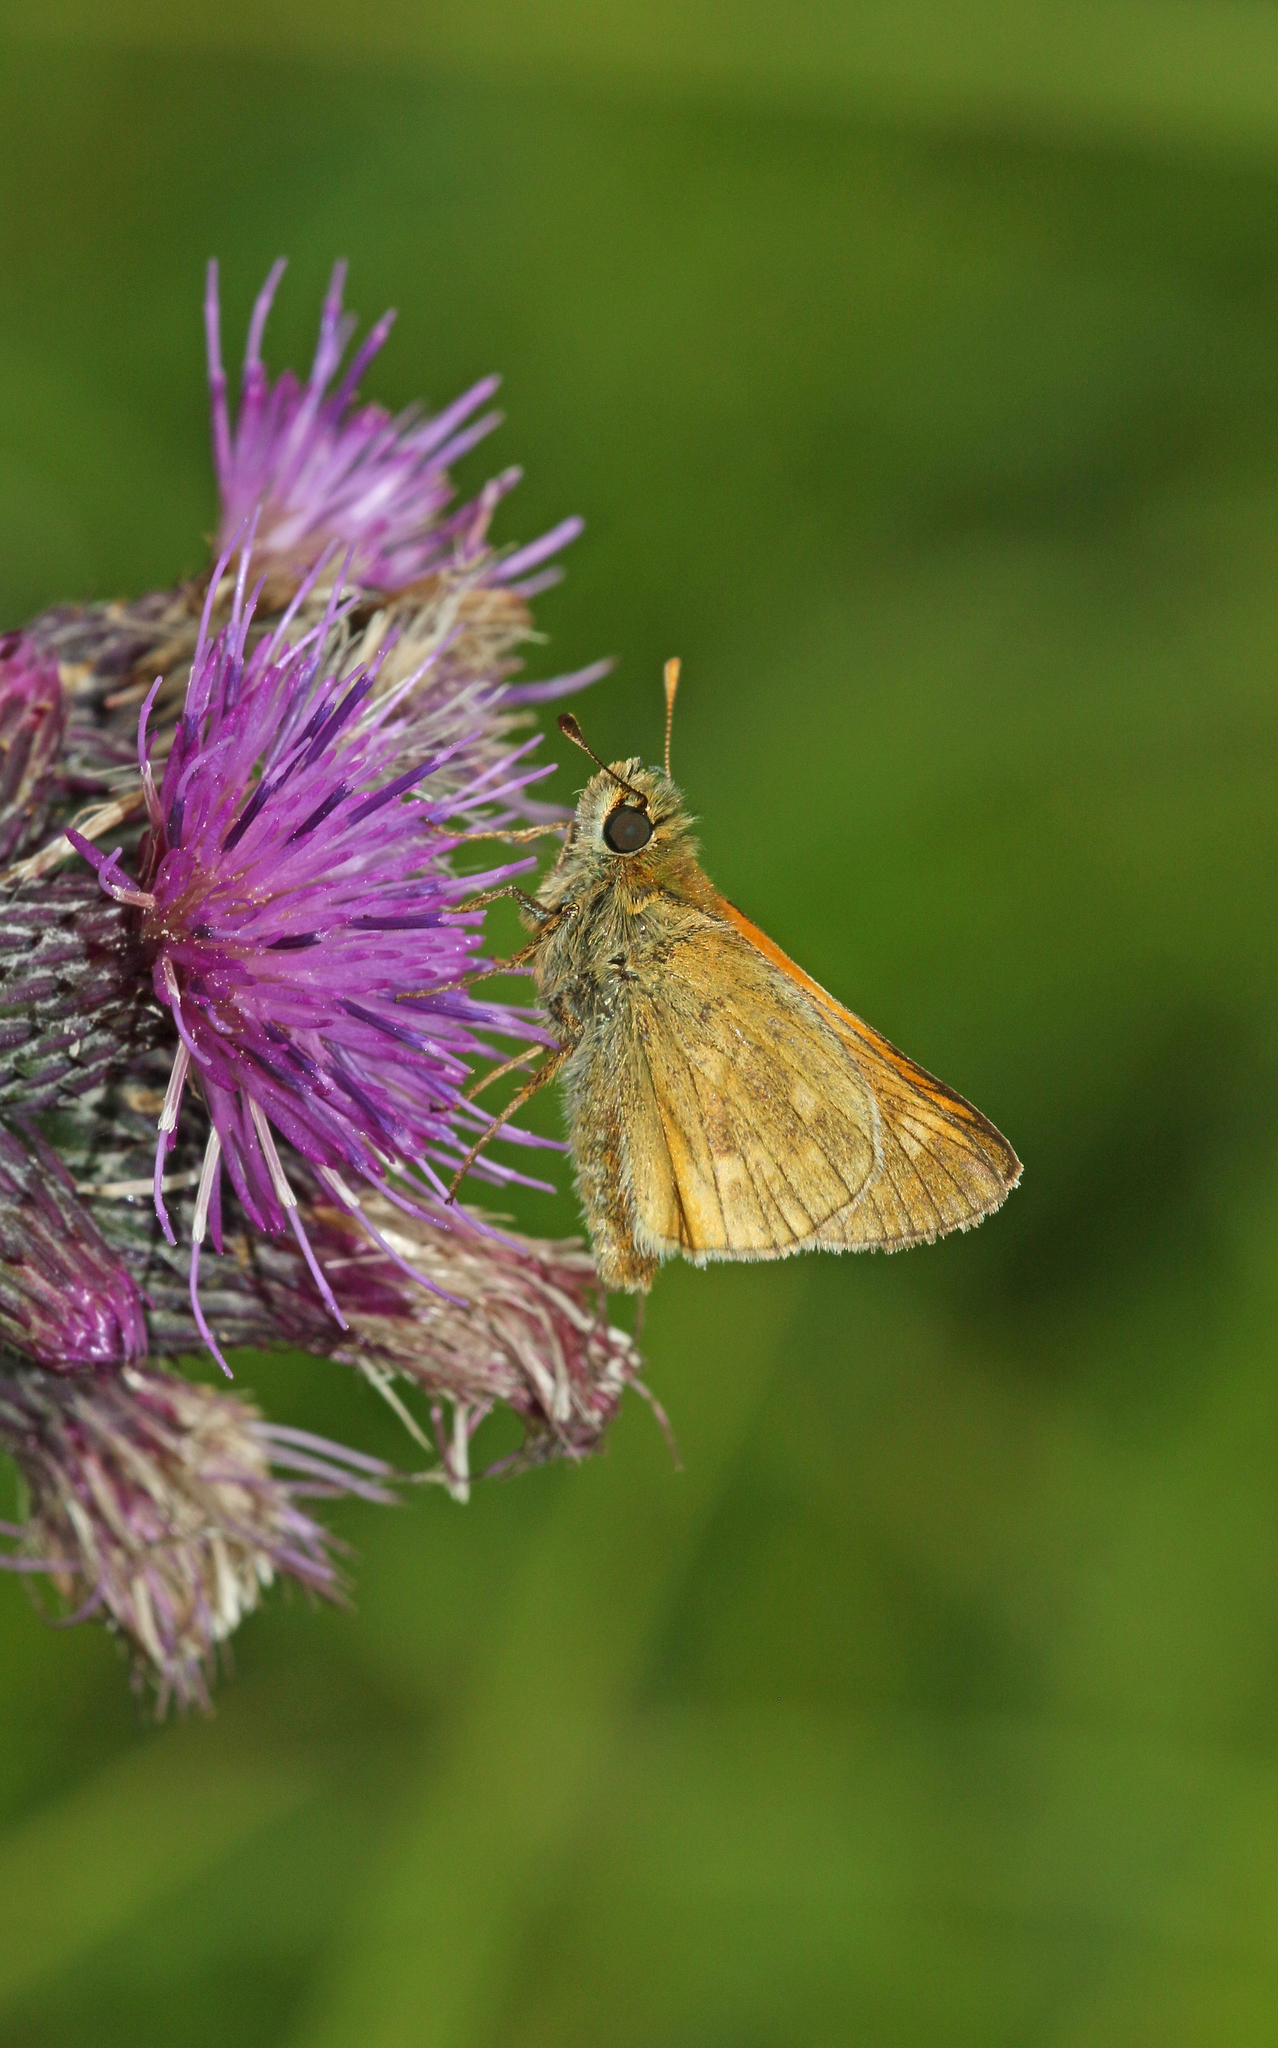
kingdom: Animalia
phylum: Arthropoda
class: Insecta
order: Lepidoptera
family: Hesperiidae
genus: Ochlodes
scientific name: Ochlodes venata
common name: Large skipper
